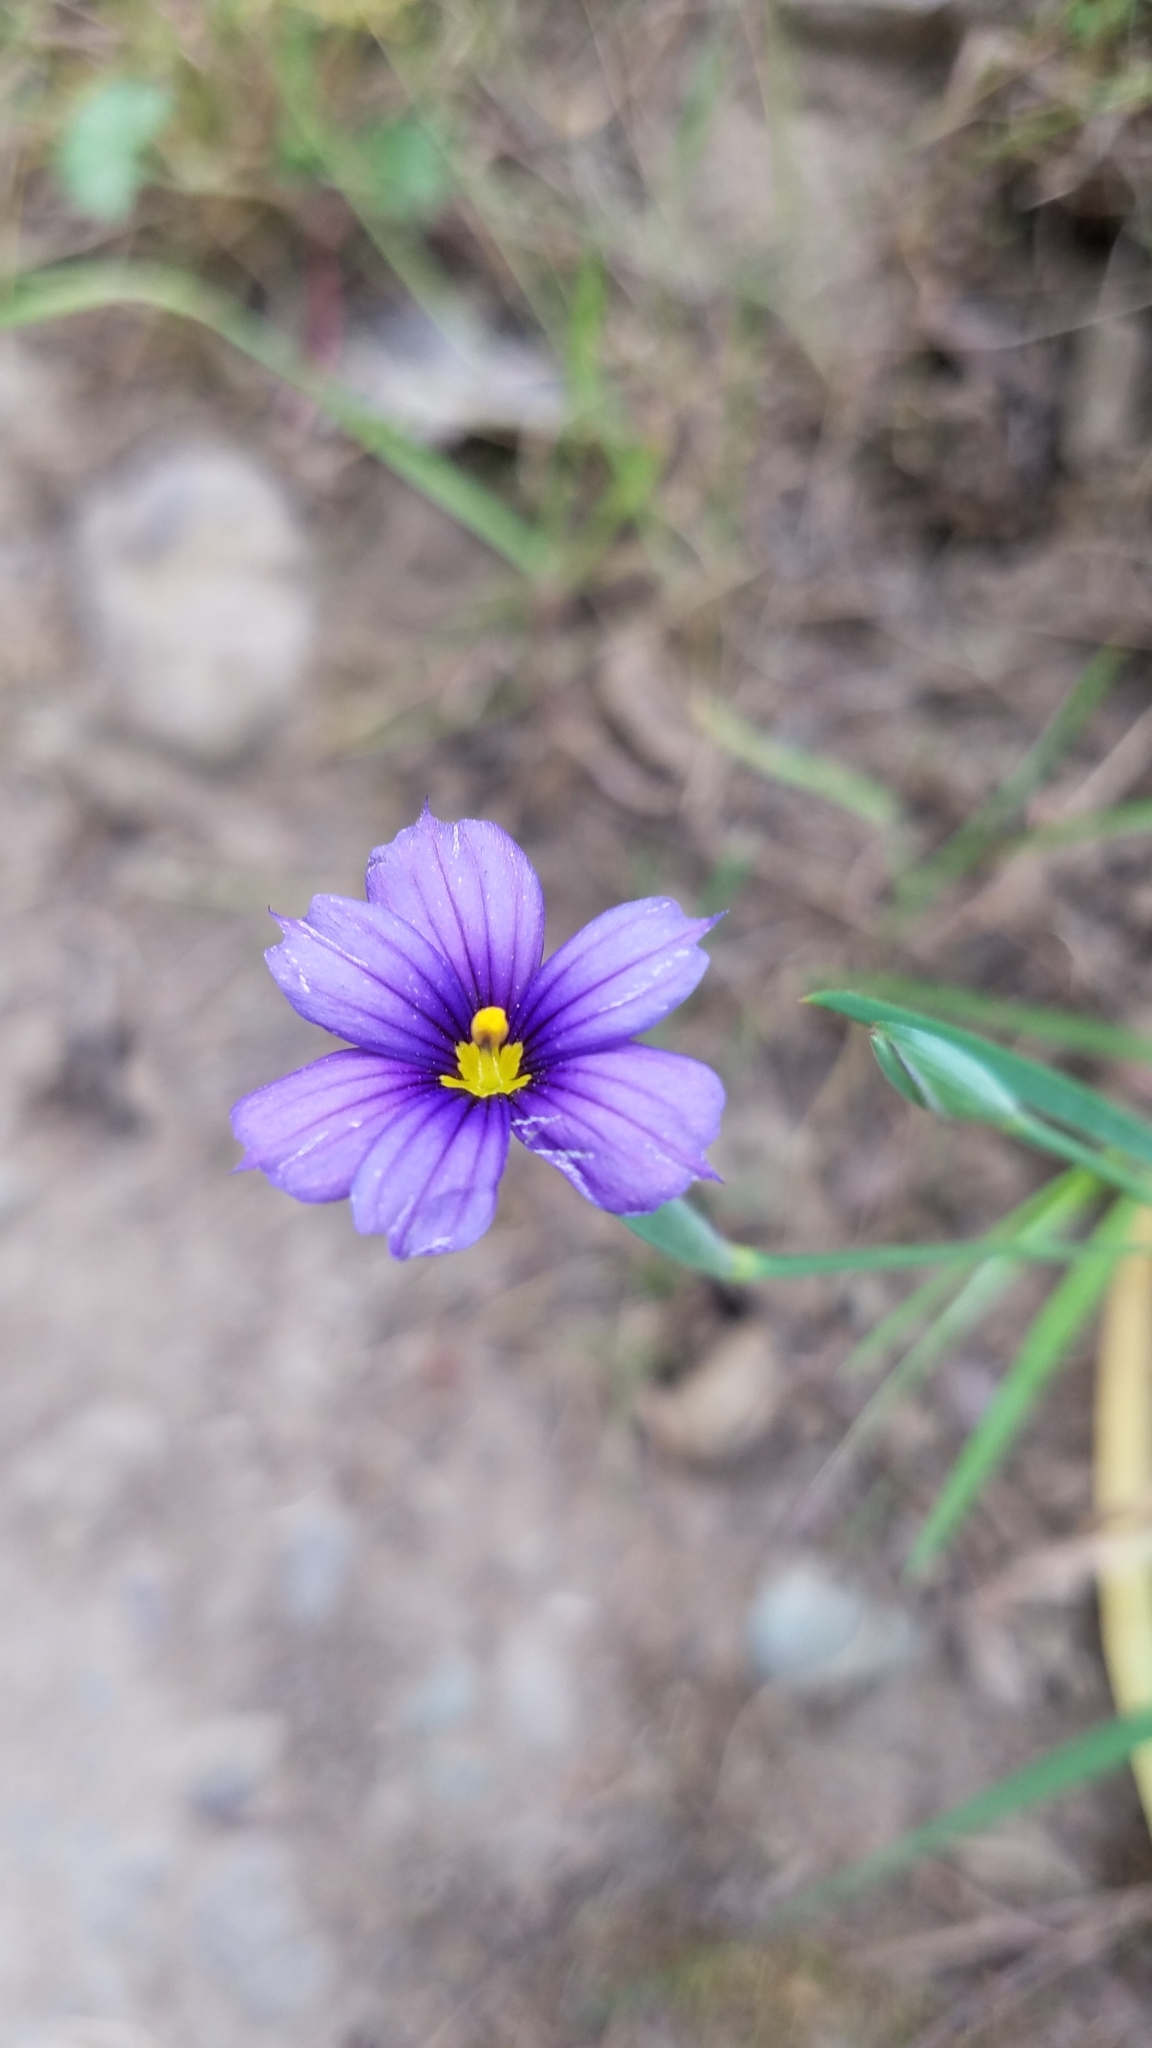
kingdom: Plantae
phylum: Tracheophyta
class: Liliopsida
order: Asparagales
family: Iridaceae
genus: Sisyrinchium
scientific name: Sisyrinchium bellum
